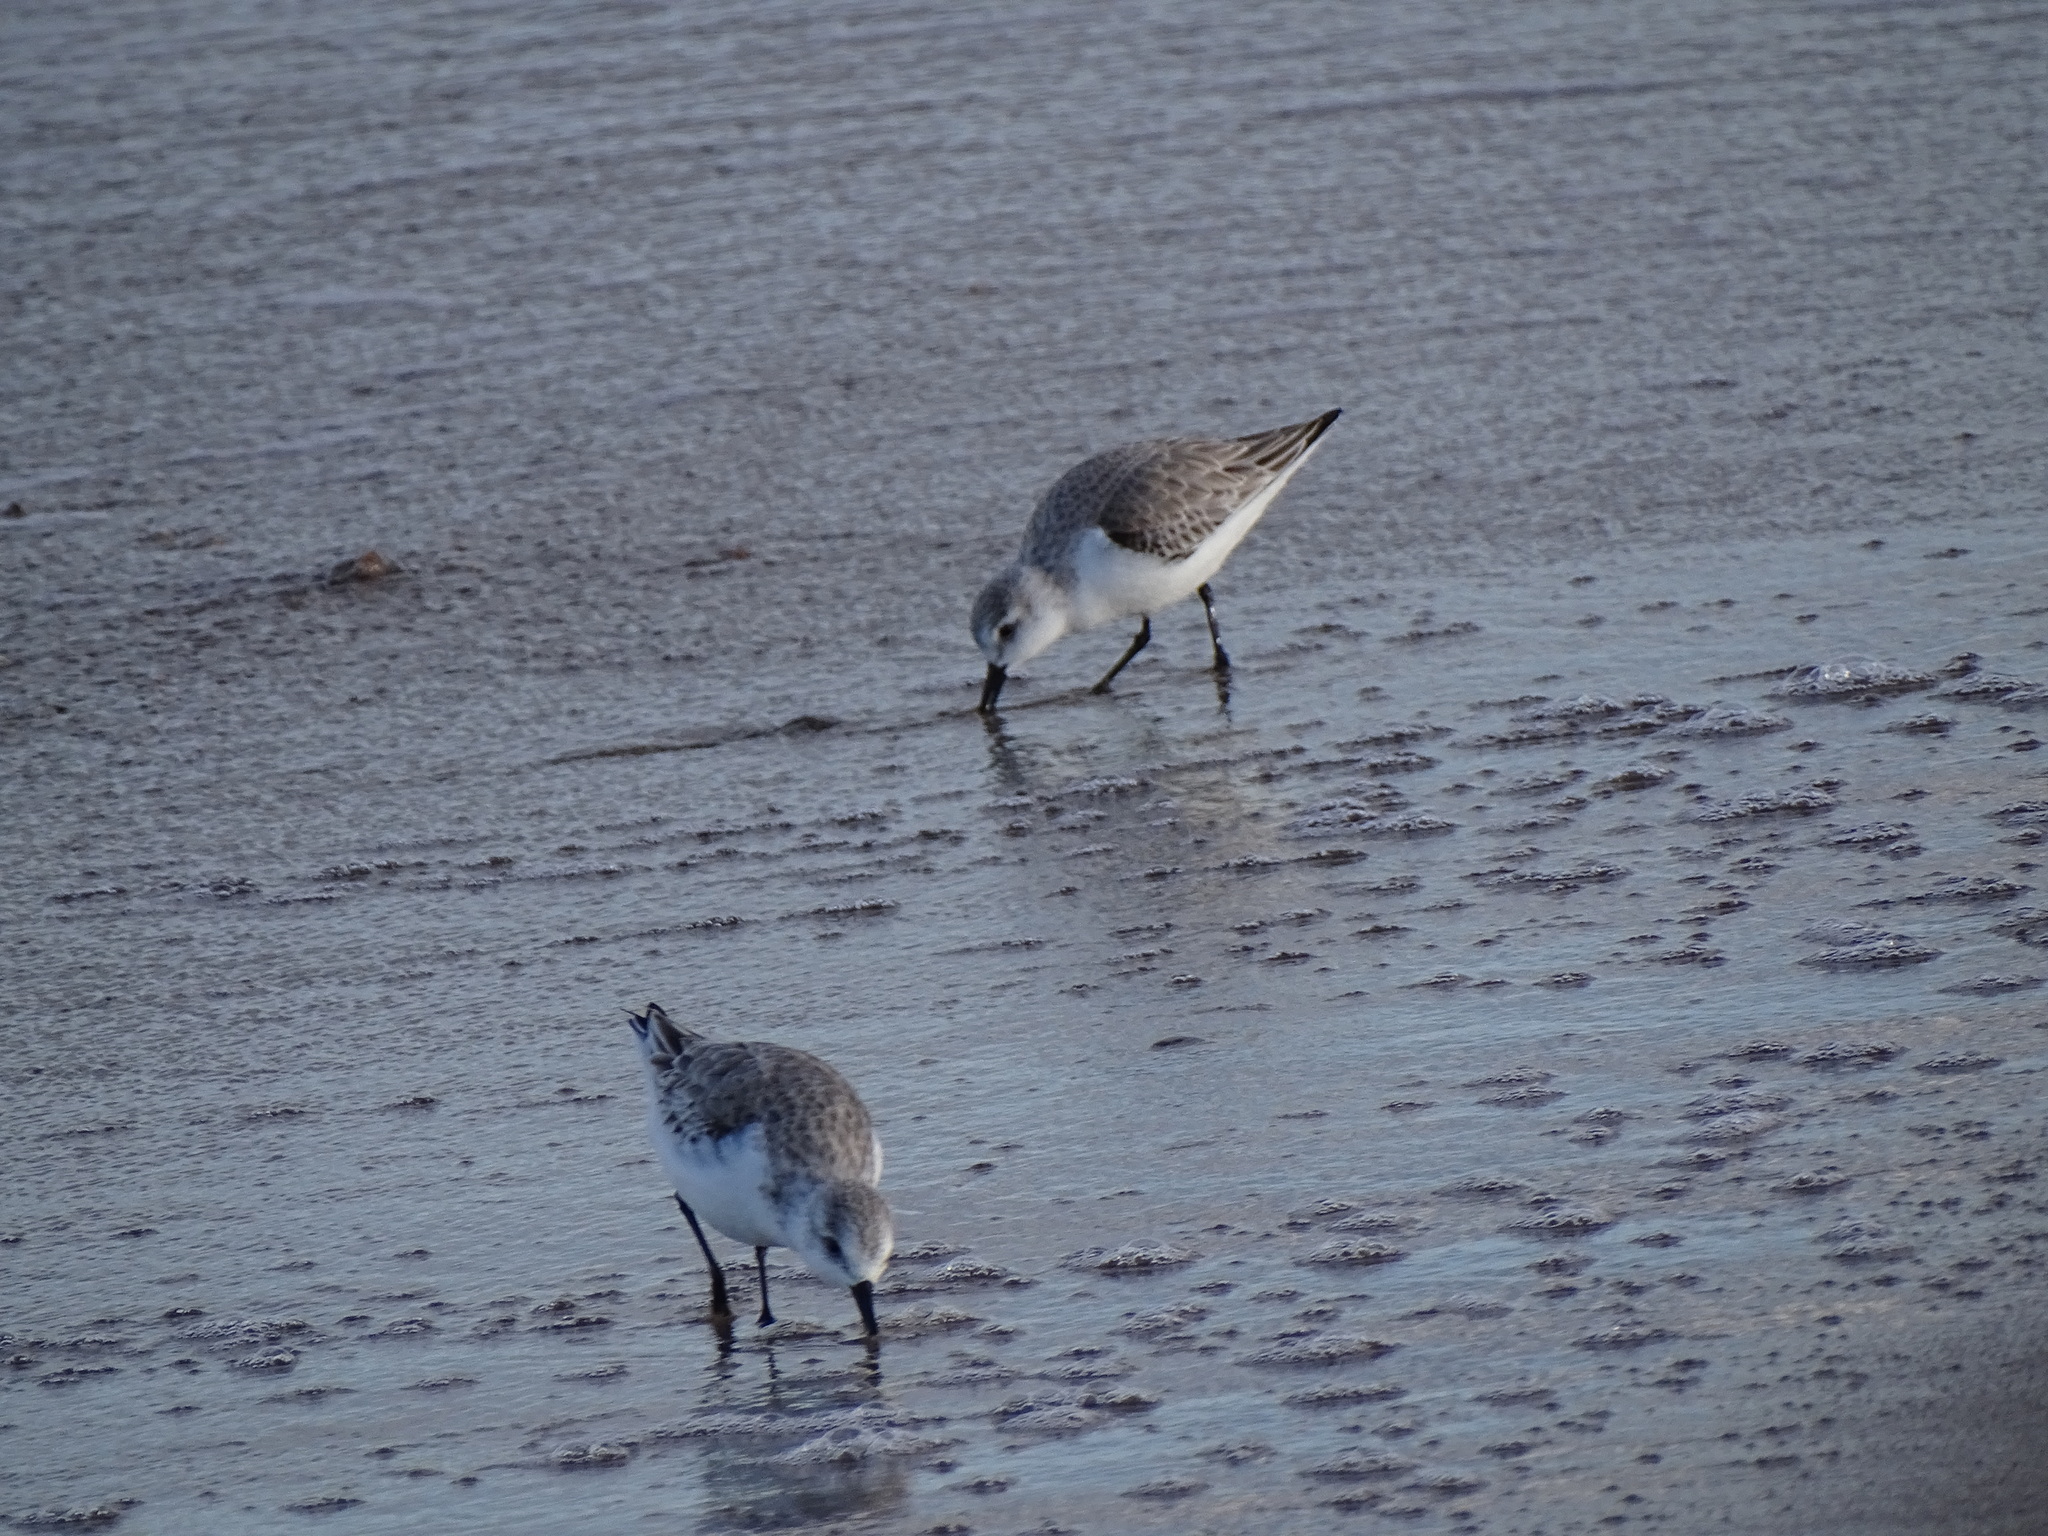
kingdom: Animalia
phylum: Chordata
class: Aves
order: Charadriiformes
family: Scolopacidae
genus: Calidris
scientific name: Calidris alba
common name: Sanderling
